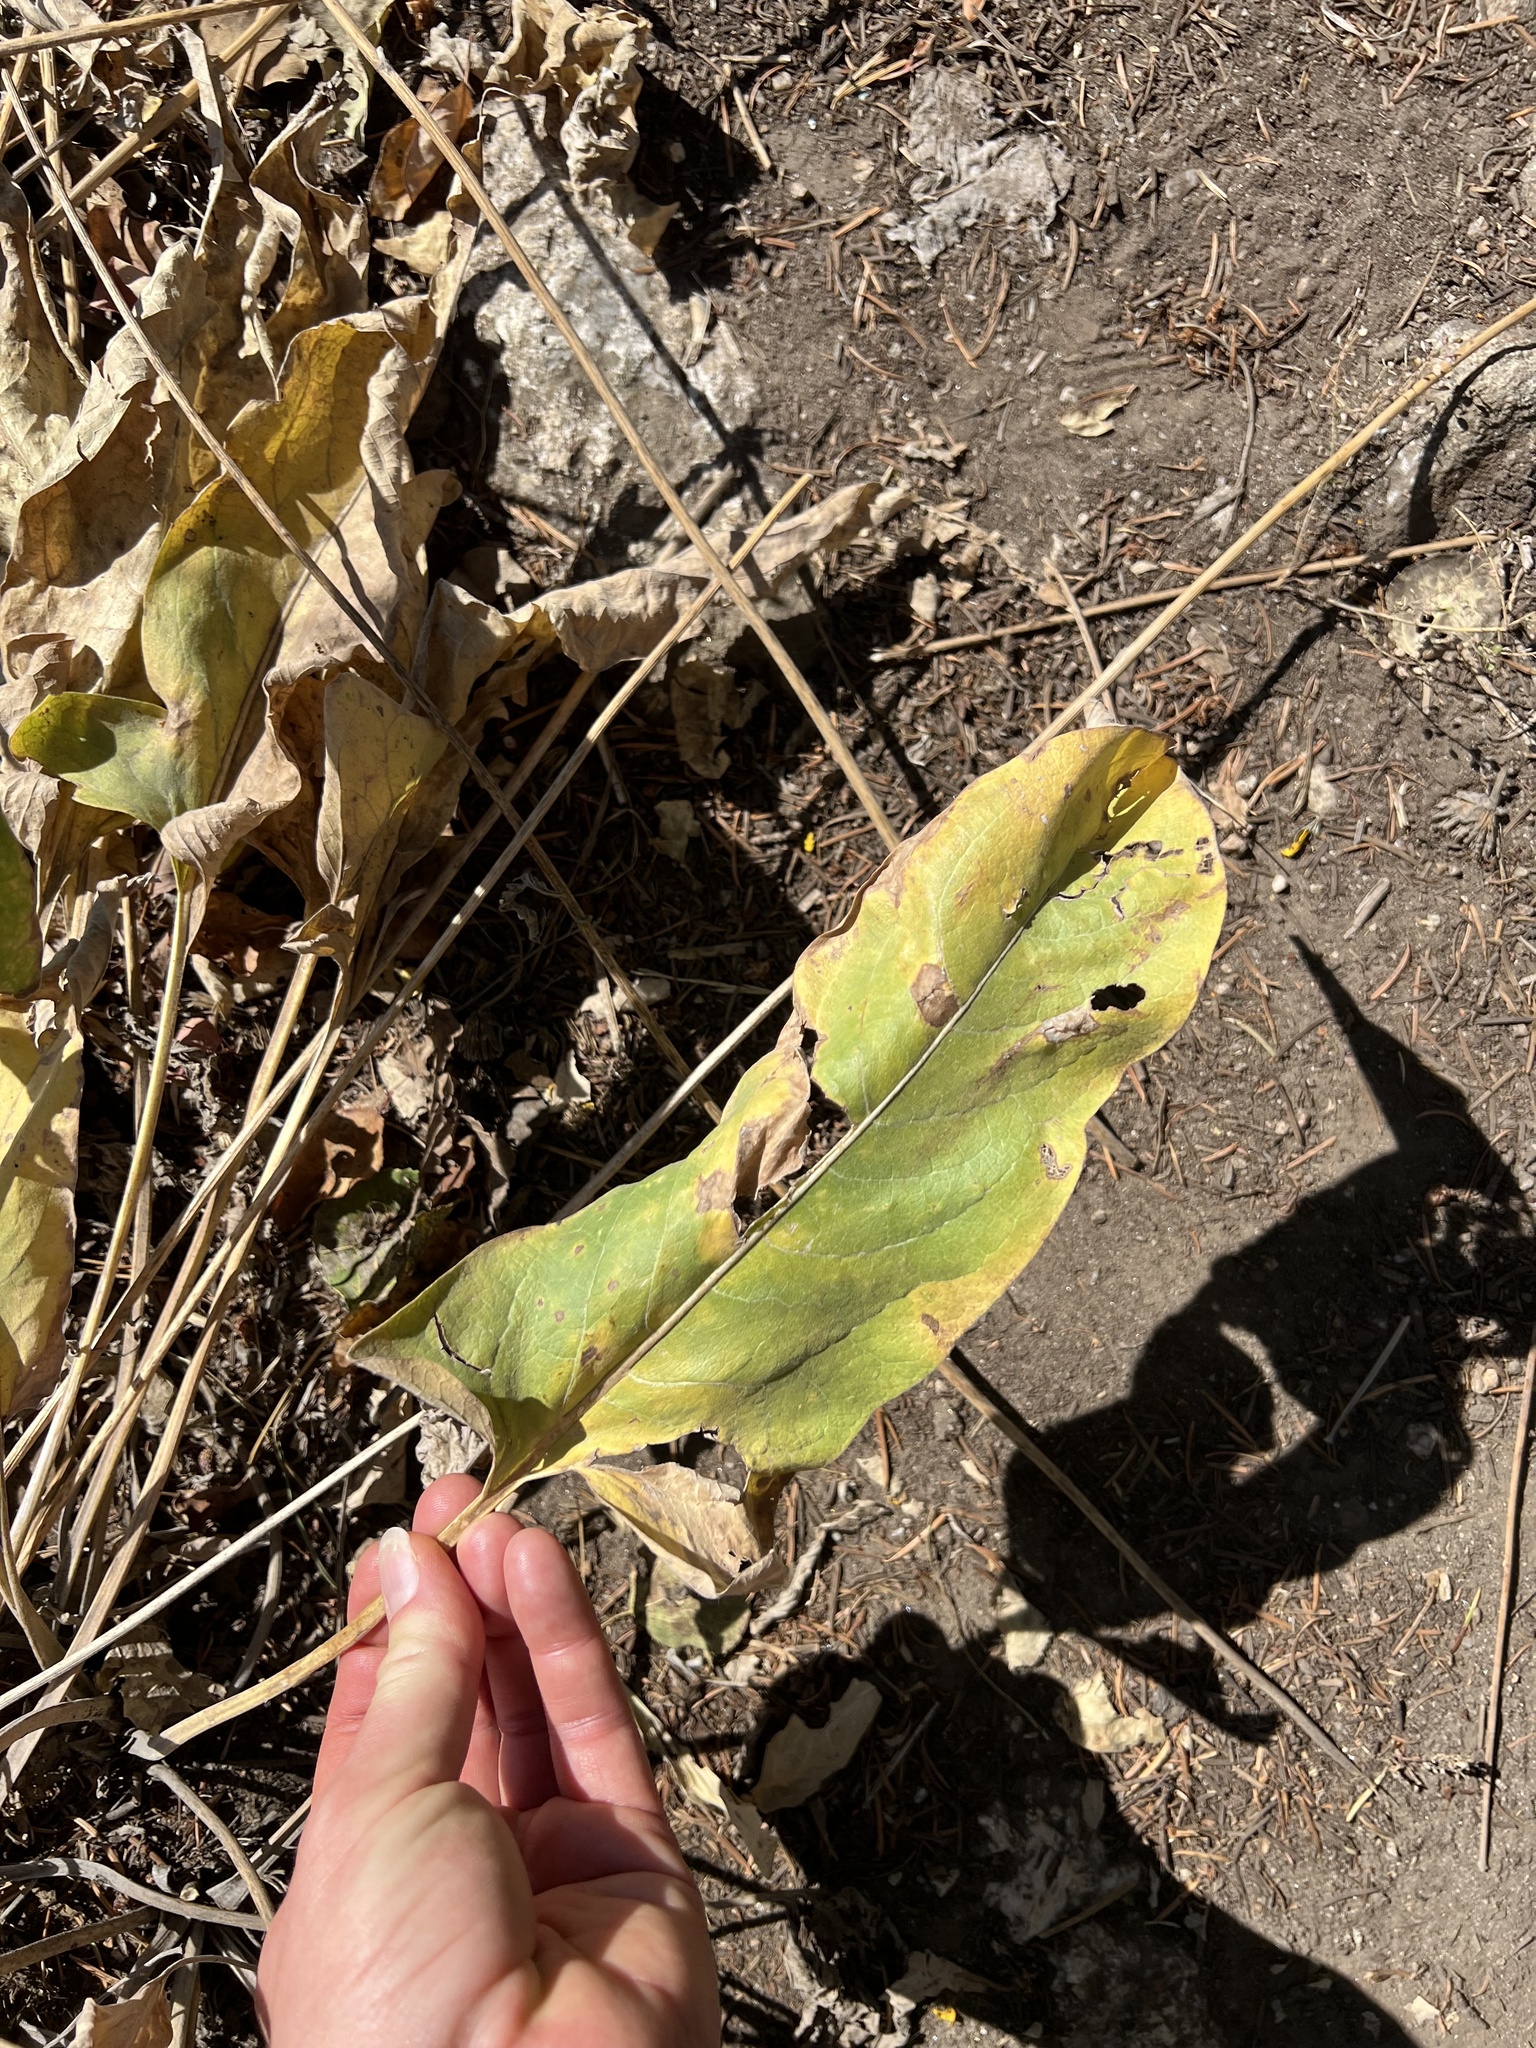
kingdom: Plantae
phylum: Tracheophyta
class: Magnoliopsida
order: Asterales
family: Asteraceae
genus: Wyethia
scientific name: Wyethia sagittata
